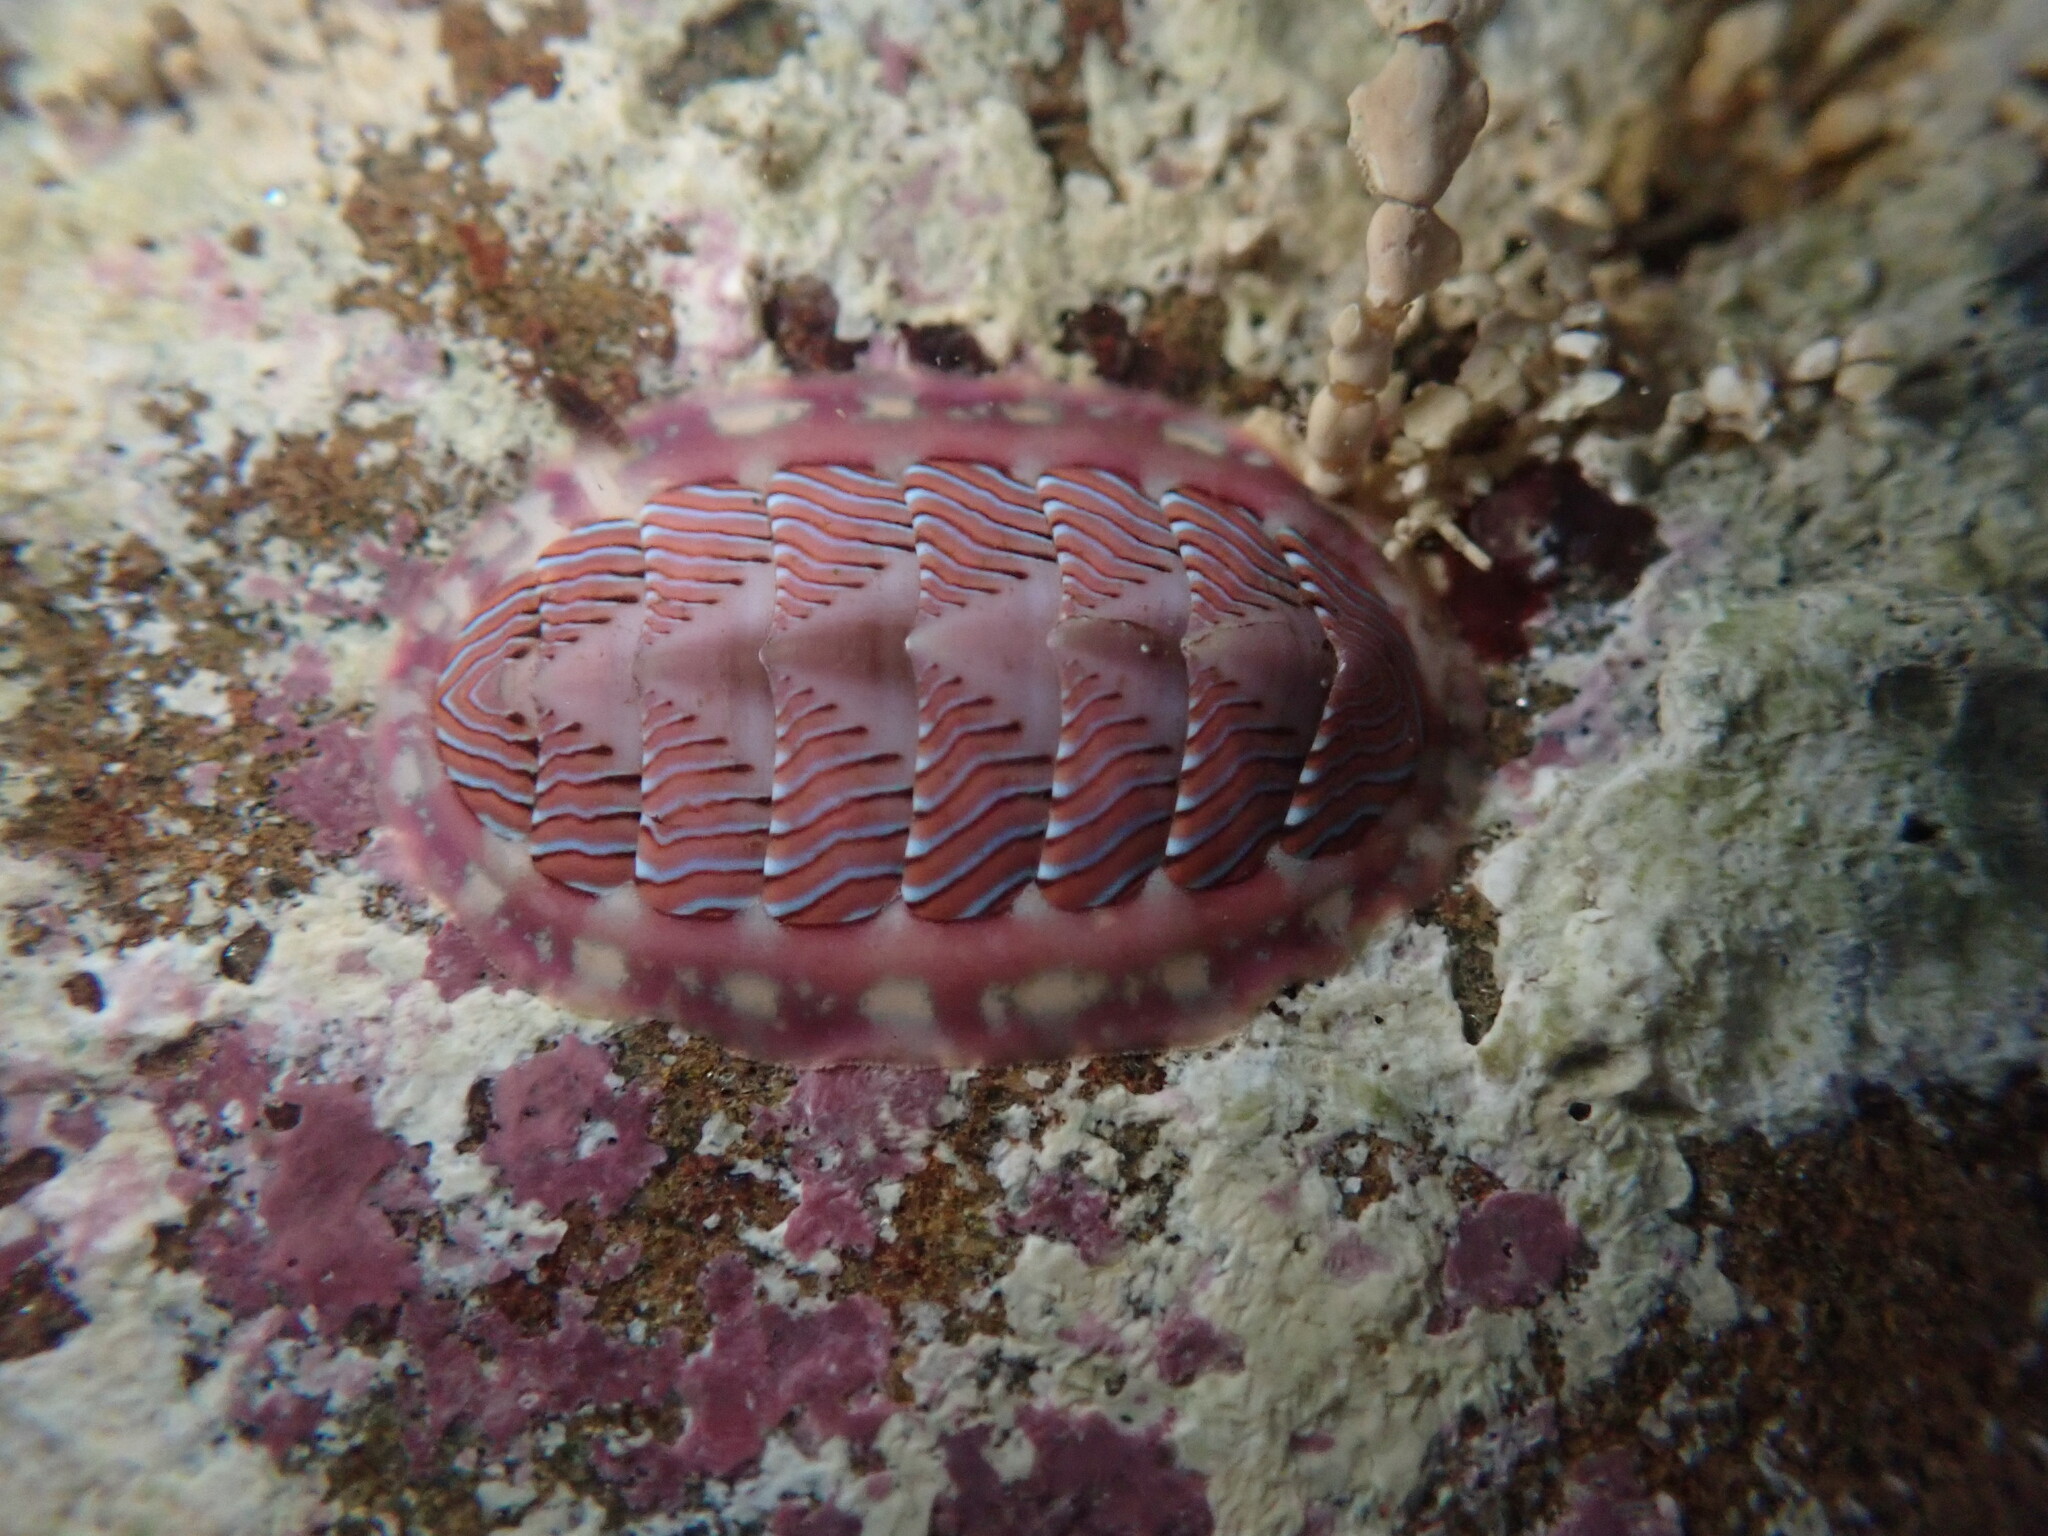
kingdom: Animalia
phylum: Mollusca
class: Polyplacophora
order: Chitonida
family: Tonicellidae
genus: Tonicella
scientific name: Tonicella lineata
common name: Lined chiton
